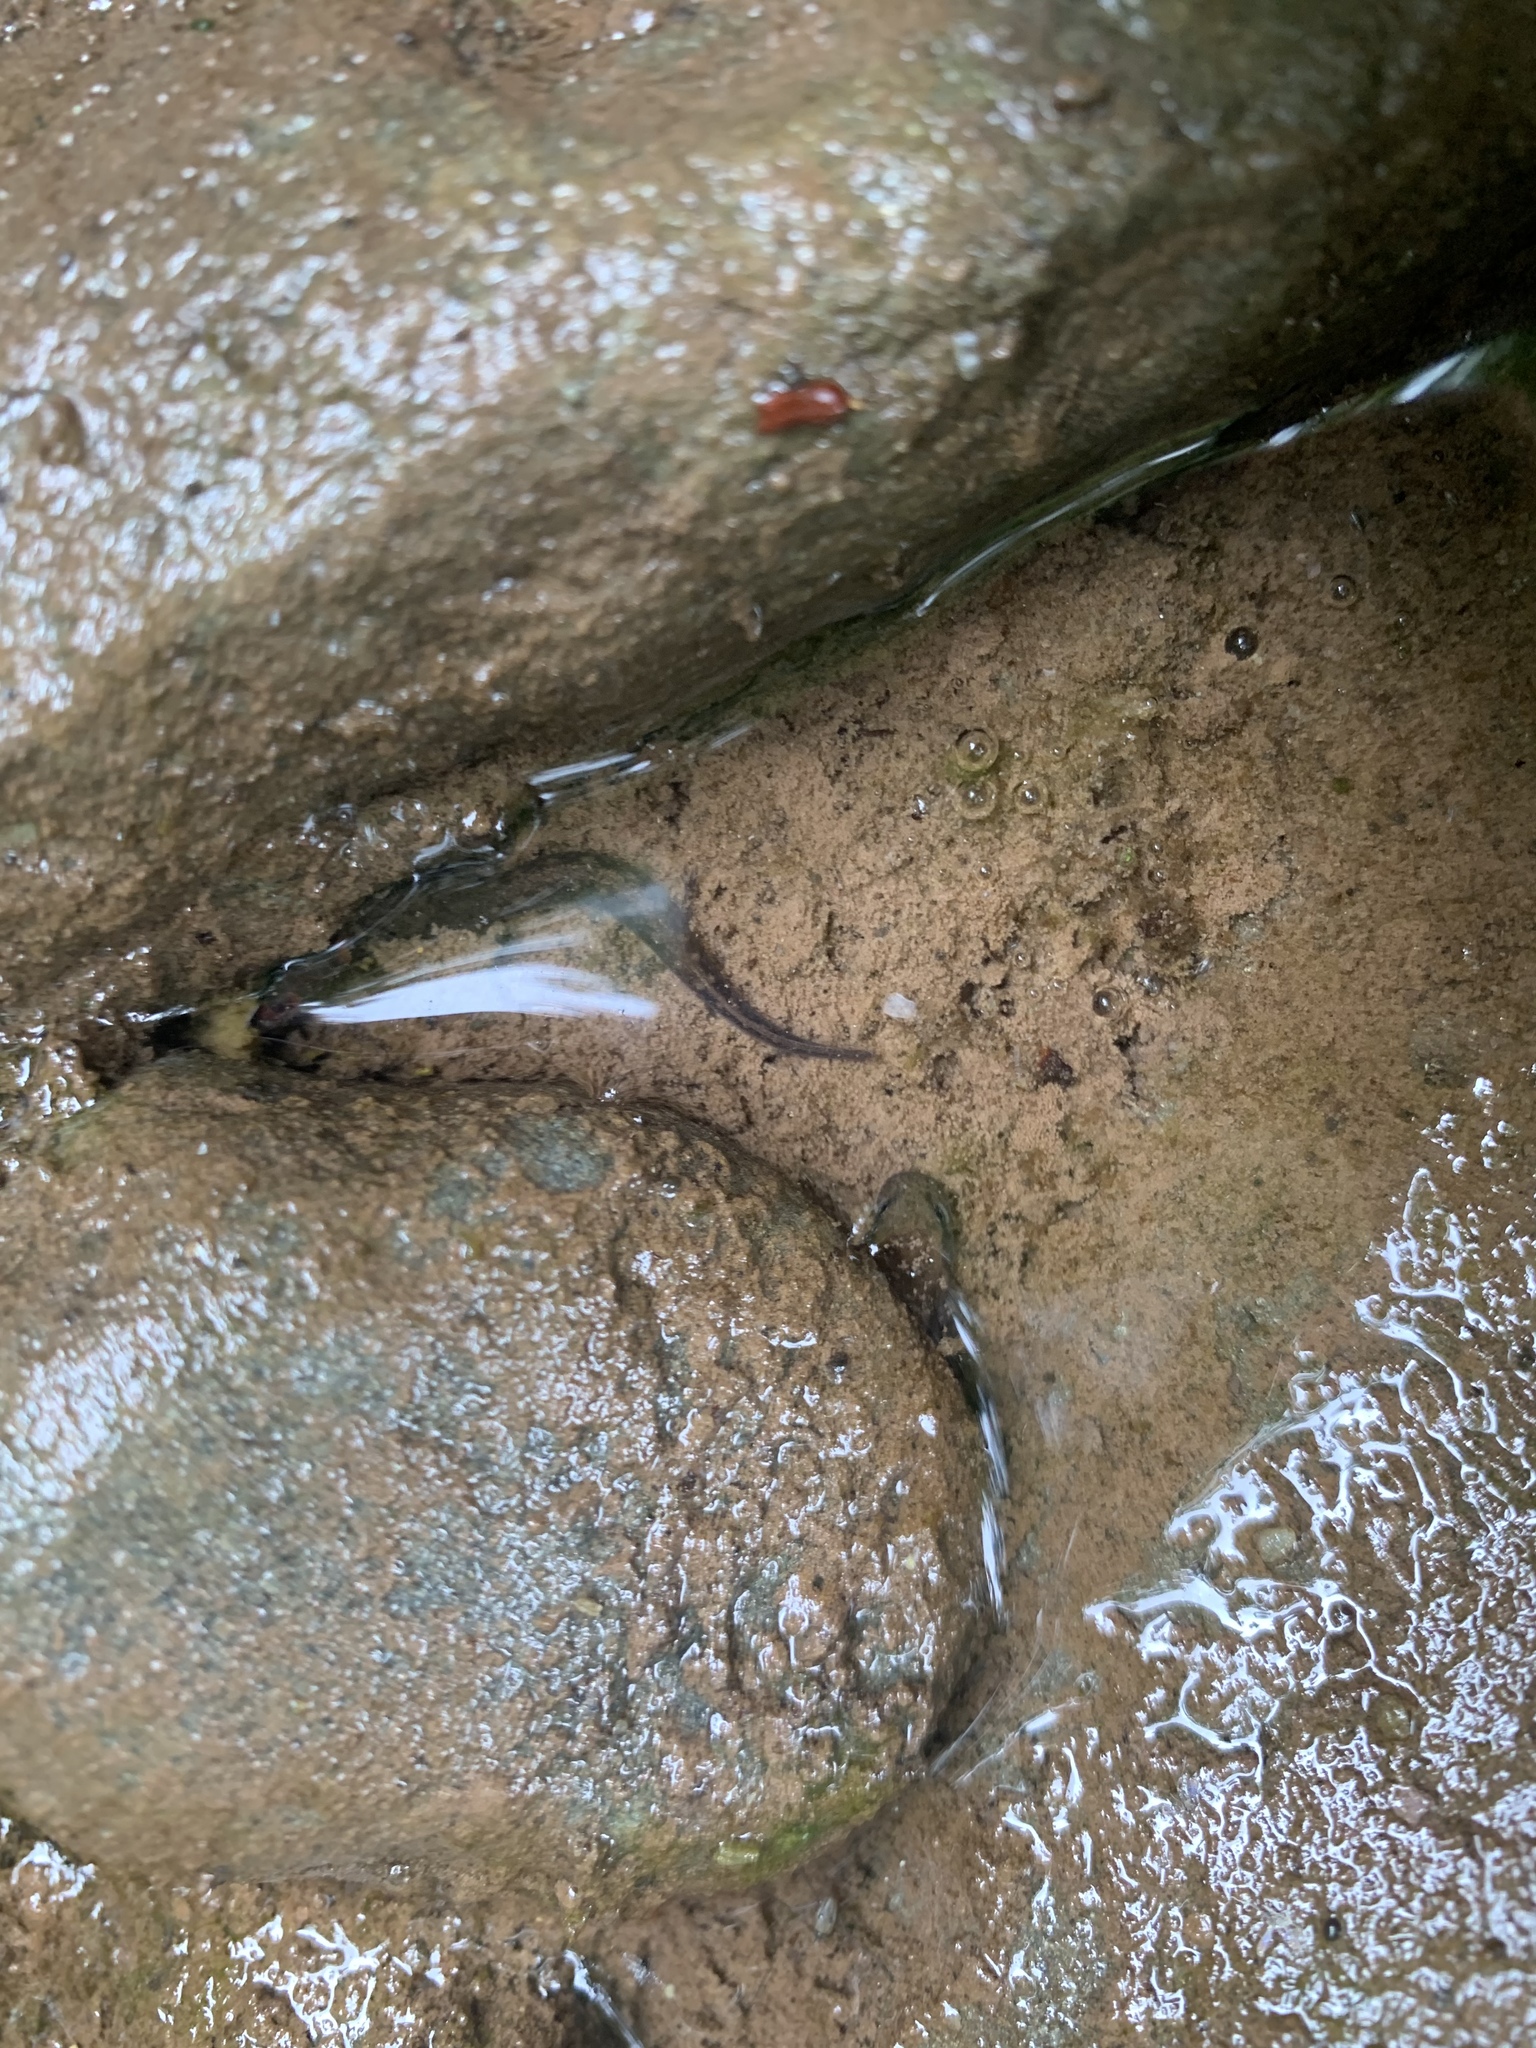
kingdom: Animalia
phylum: Chordata
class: Amphibia
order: Caudata
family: Plethodontidae
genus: Eurycea
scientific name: Eurycea bislineata
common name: Northern two-lined salamander
